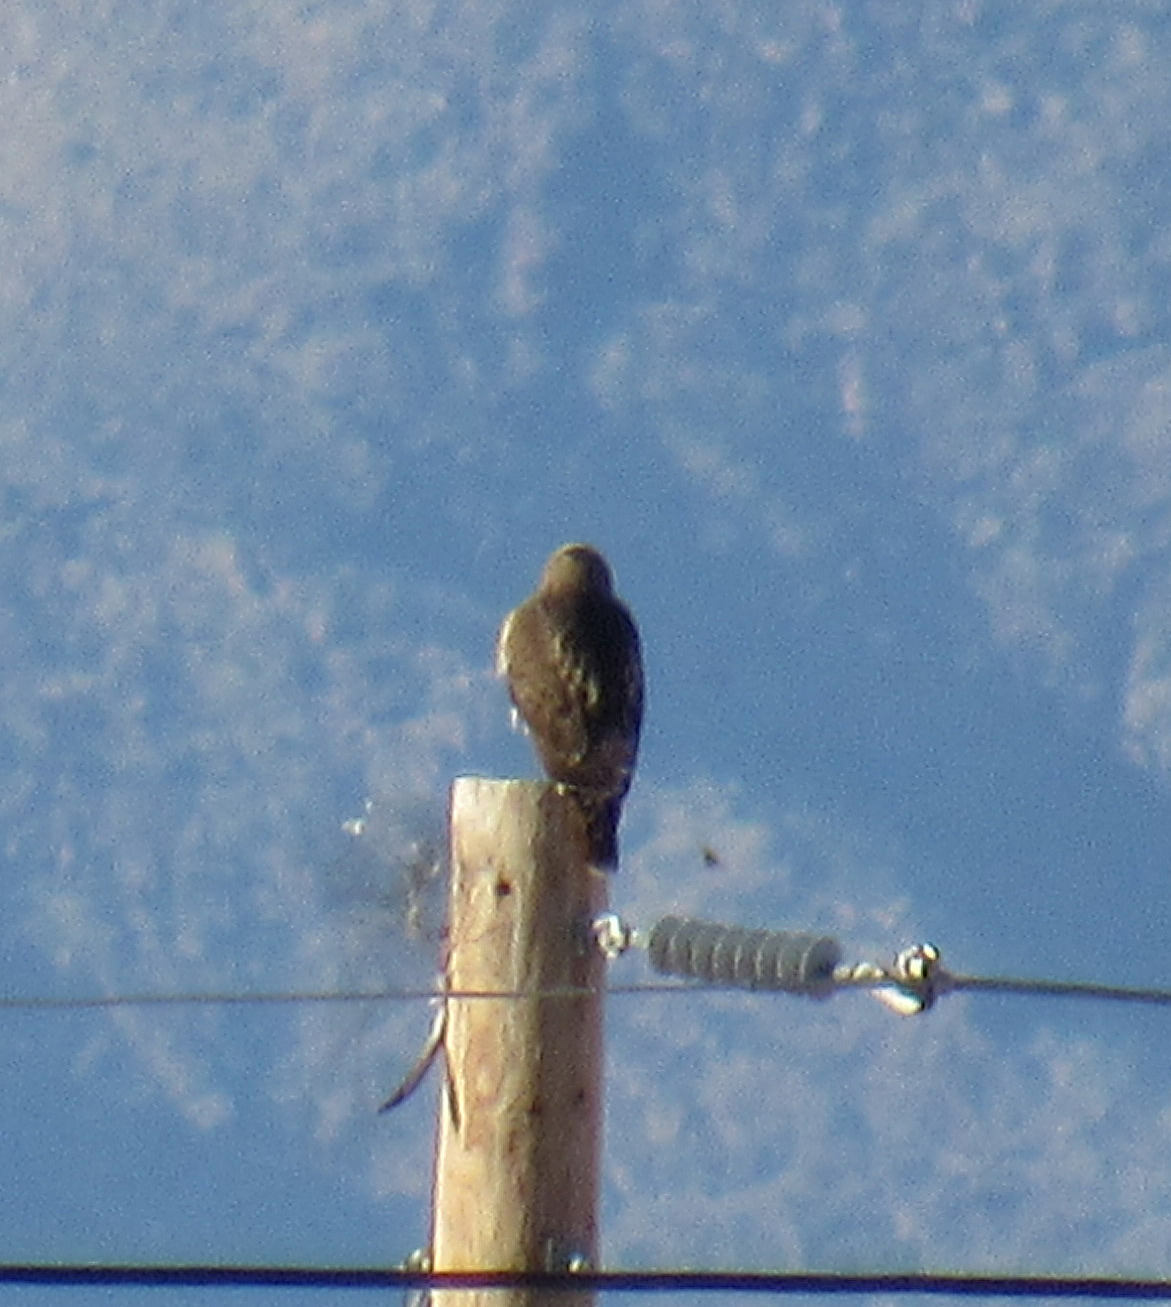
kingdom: Animalia
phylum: Chordata
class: Aves
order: Accipitriformes
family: Accipitridae
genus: Buteo
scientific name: Buteo jamaicensis
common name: Red-tailed hawk
